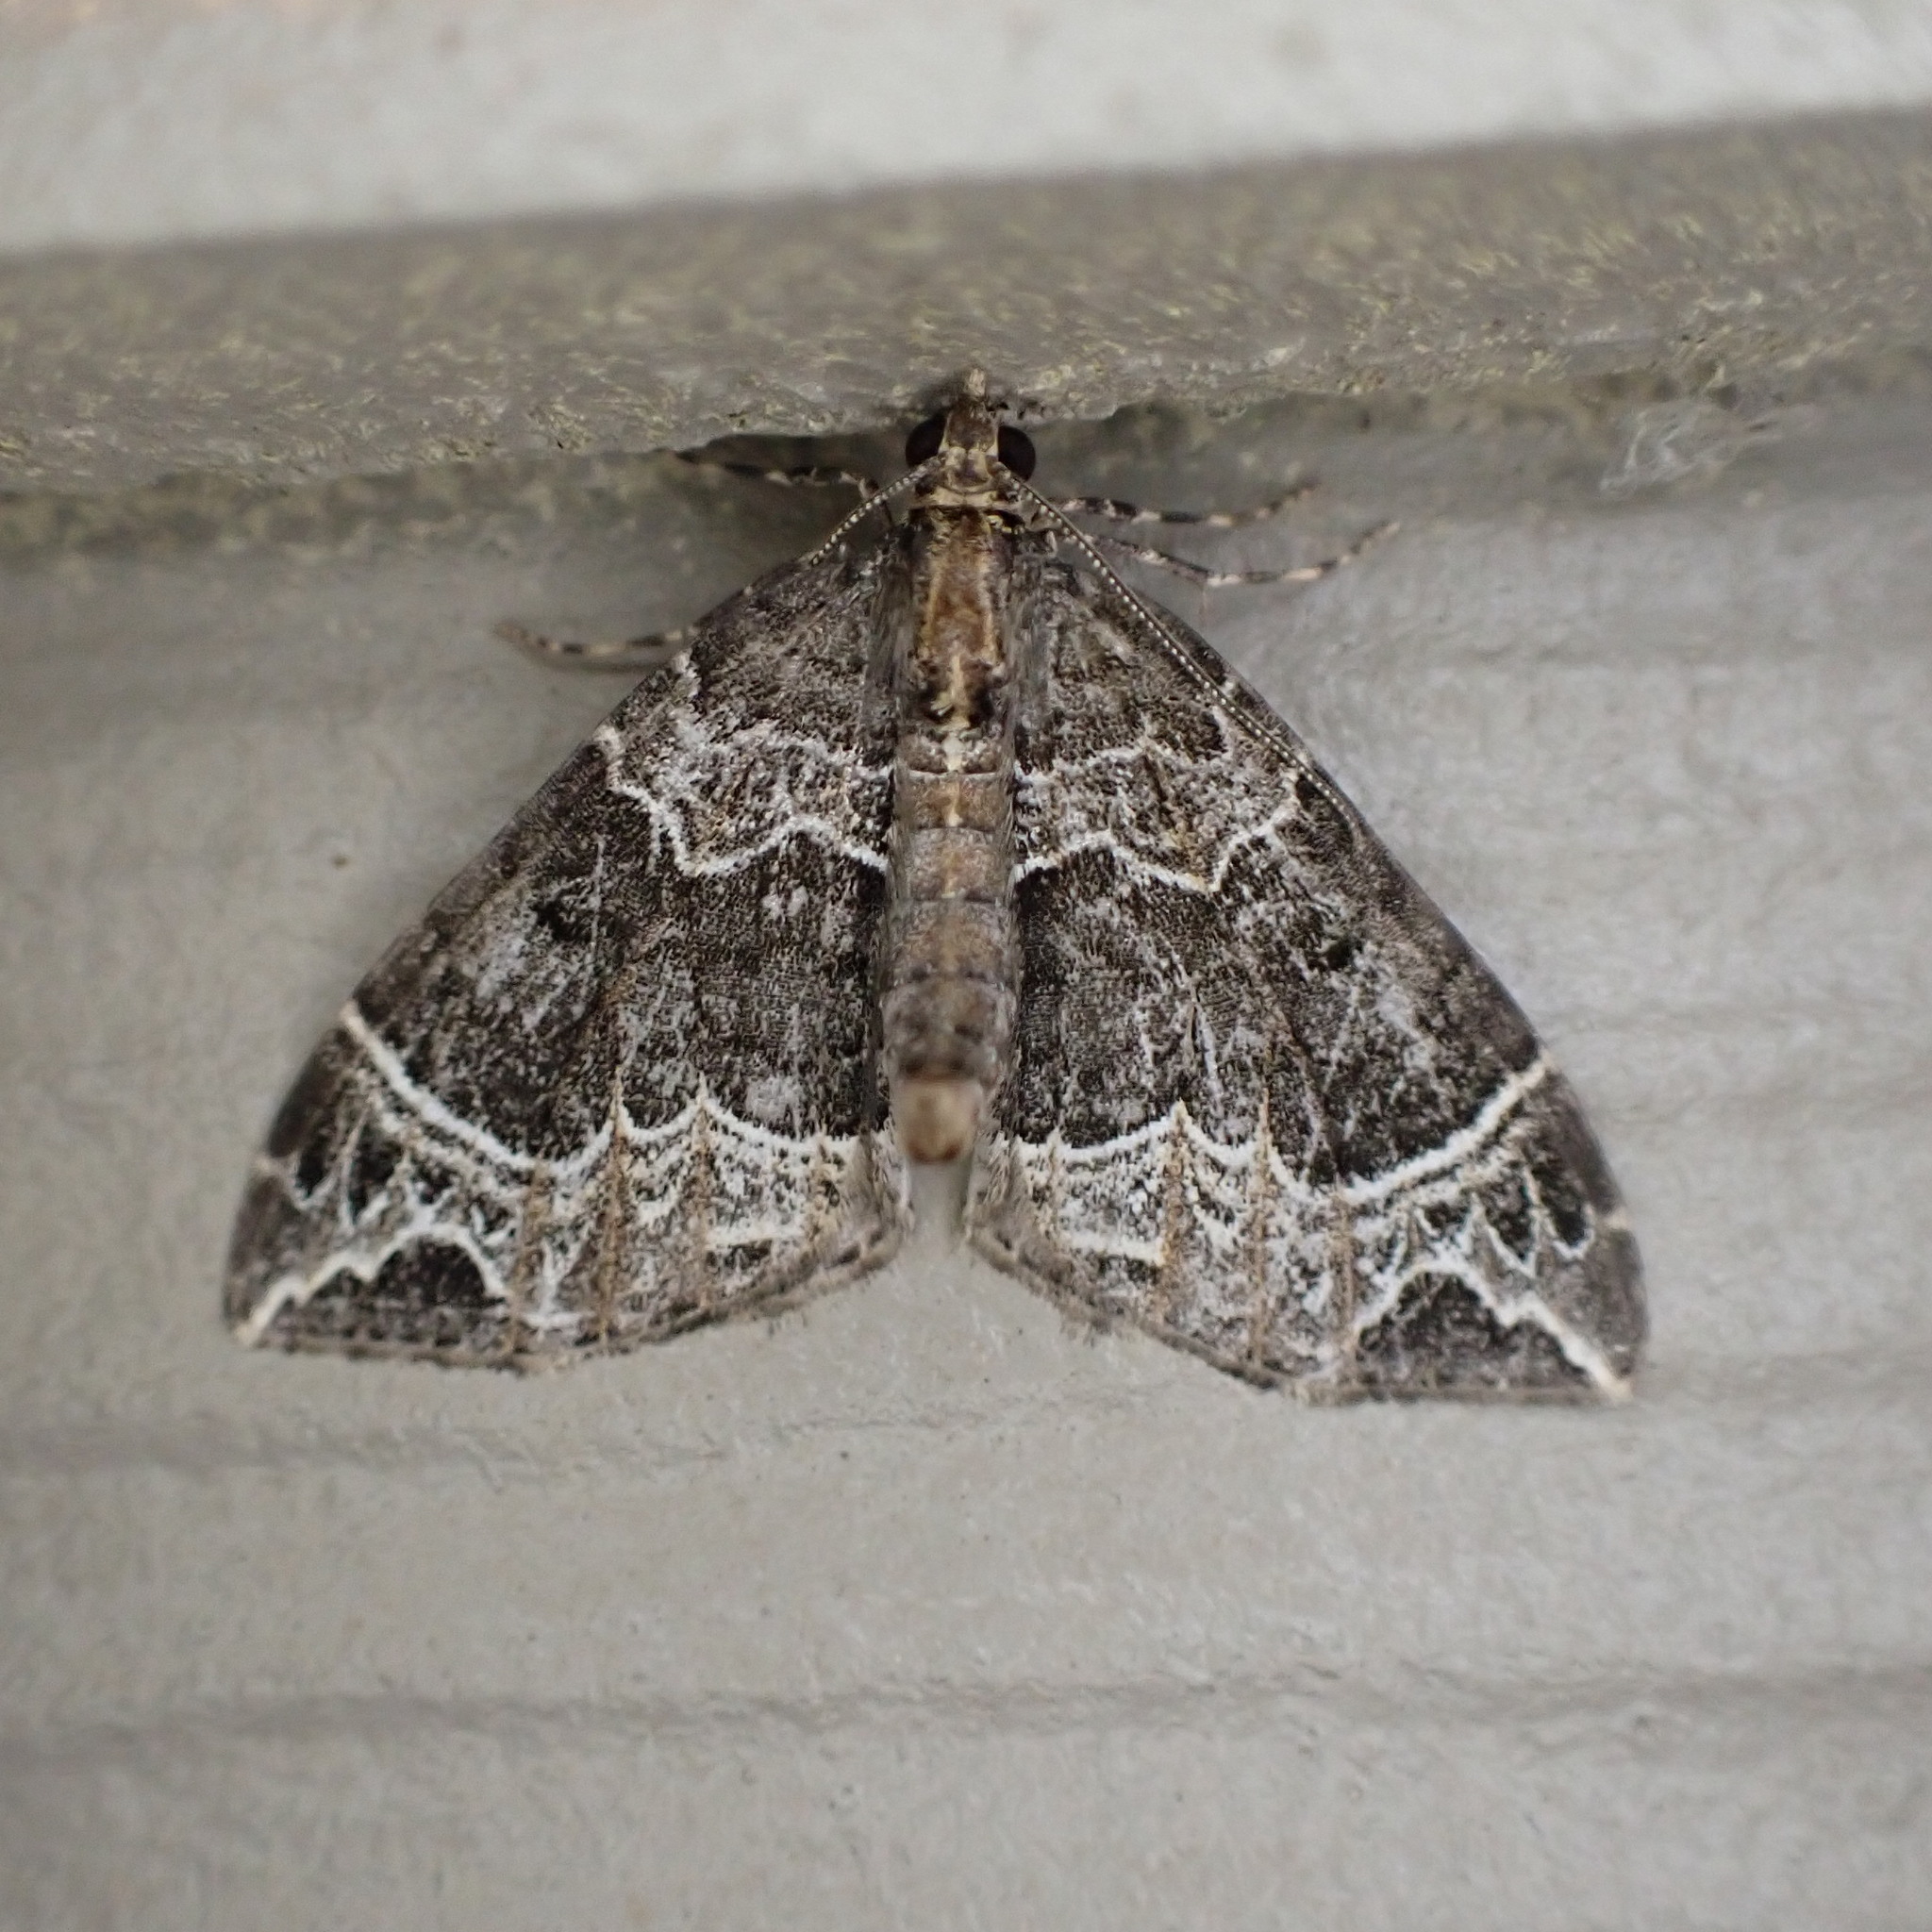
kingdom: Animalia
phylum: Arthropoda
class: Insecta
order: Lepidoptera
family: Geometridae
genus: Ecliptopera
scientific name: Ecliptopera silaceata
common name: Small phoenix
